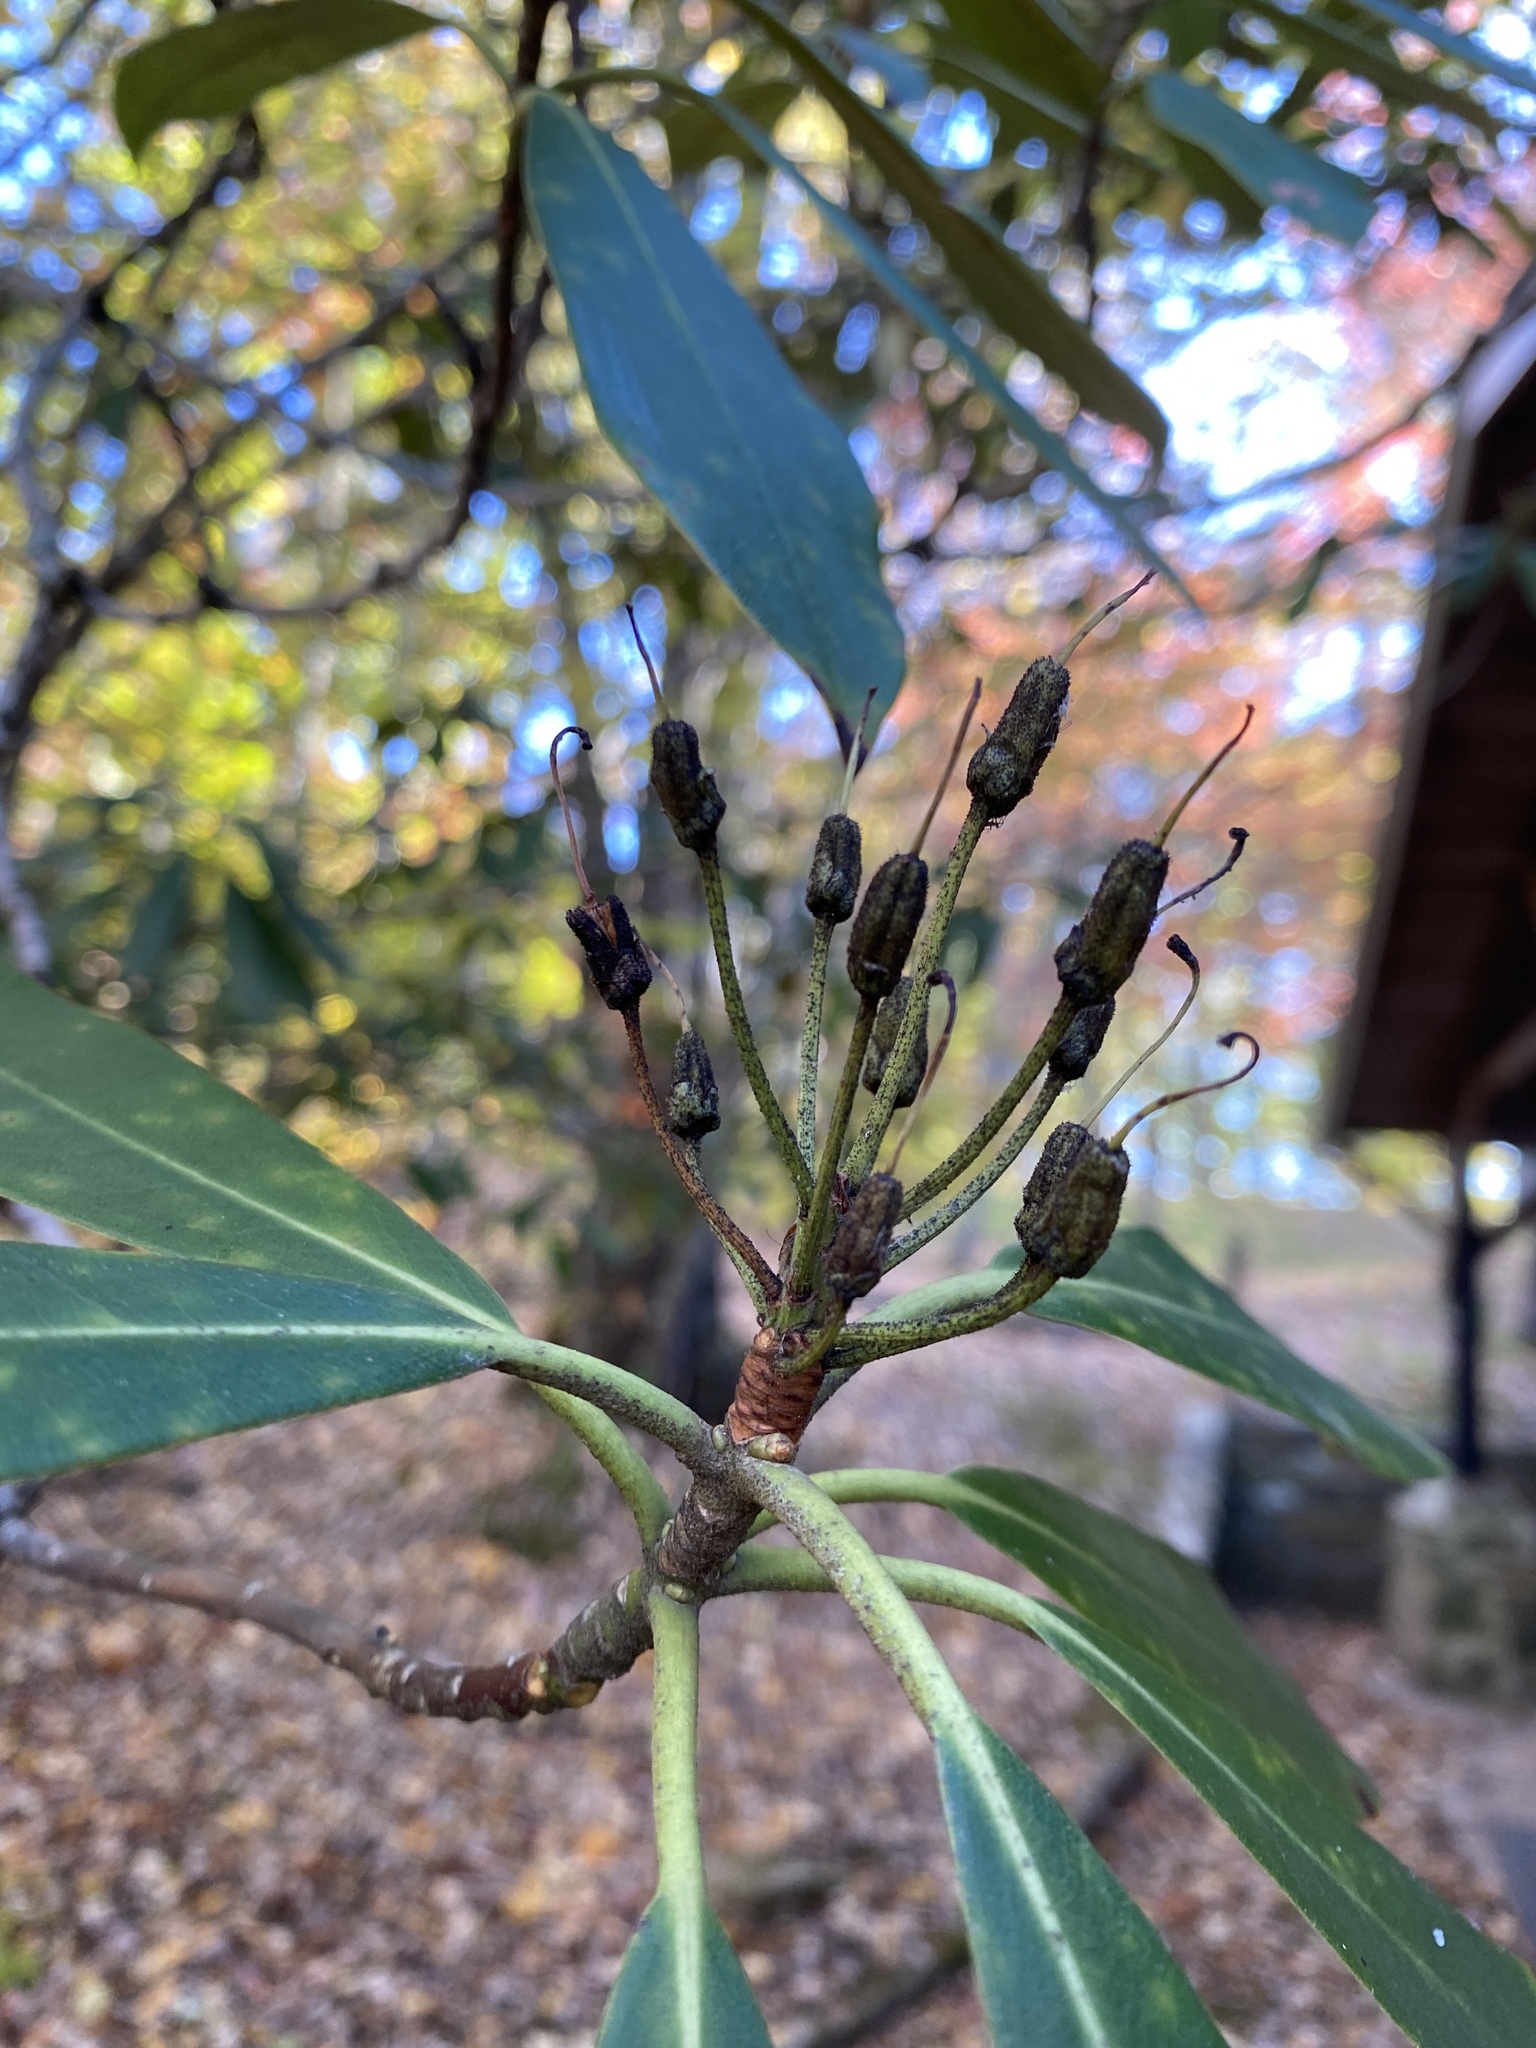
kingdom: Plantae
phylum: Tracheophyta
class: Magnoliopsida
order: Ericales
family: Ericaceae
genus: Rhododendron
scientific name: Rhododendron maximum
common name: Great rhododendron
